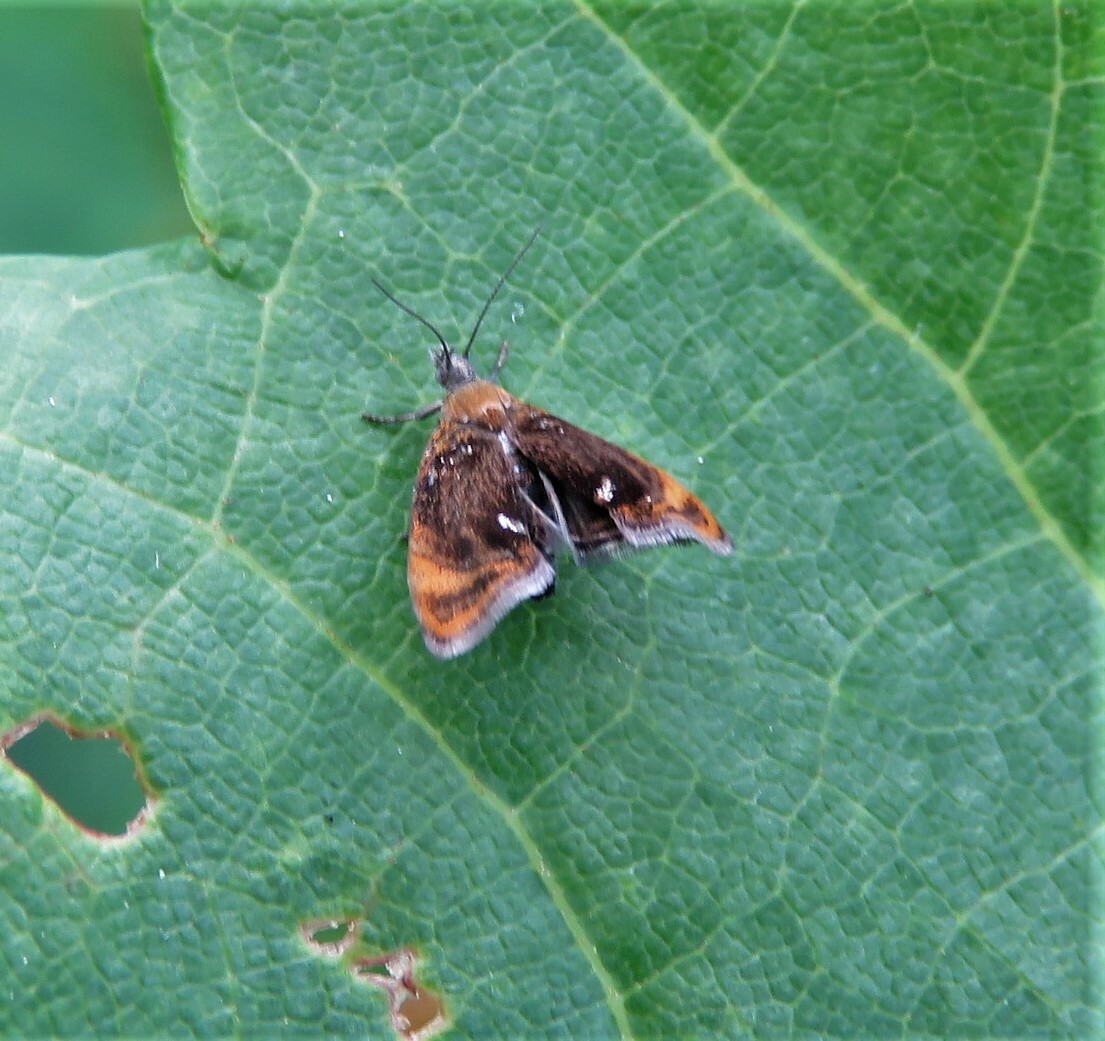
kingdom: Animalia
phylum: Arthropoda
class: Insecta
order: Lepidoptera
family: Choreutidae
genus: Prochoreutis
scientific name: Prochoreutis inflatella
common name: Skullcap skeletonizer moth
